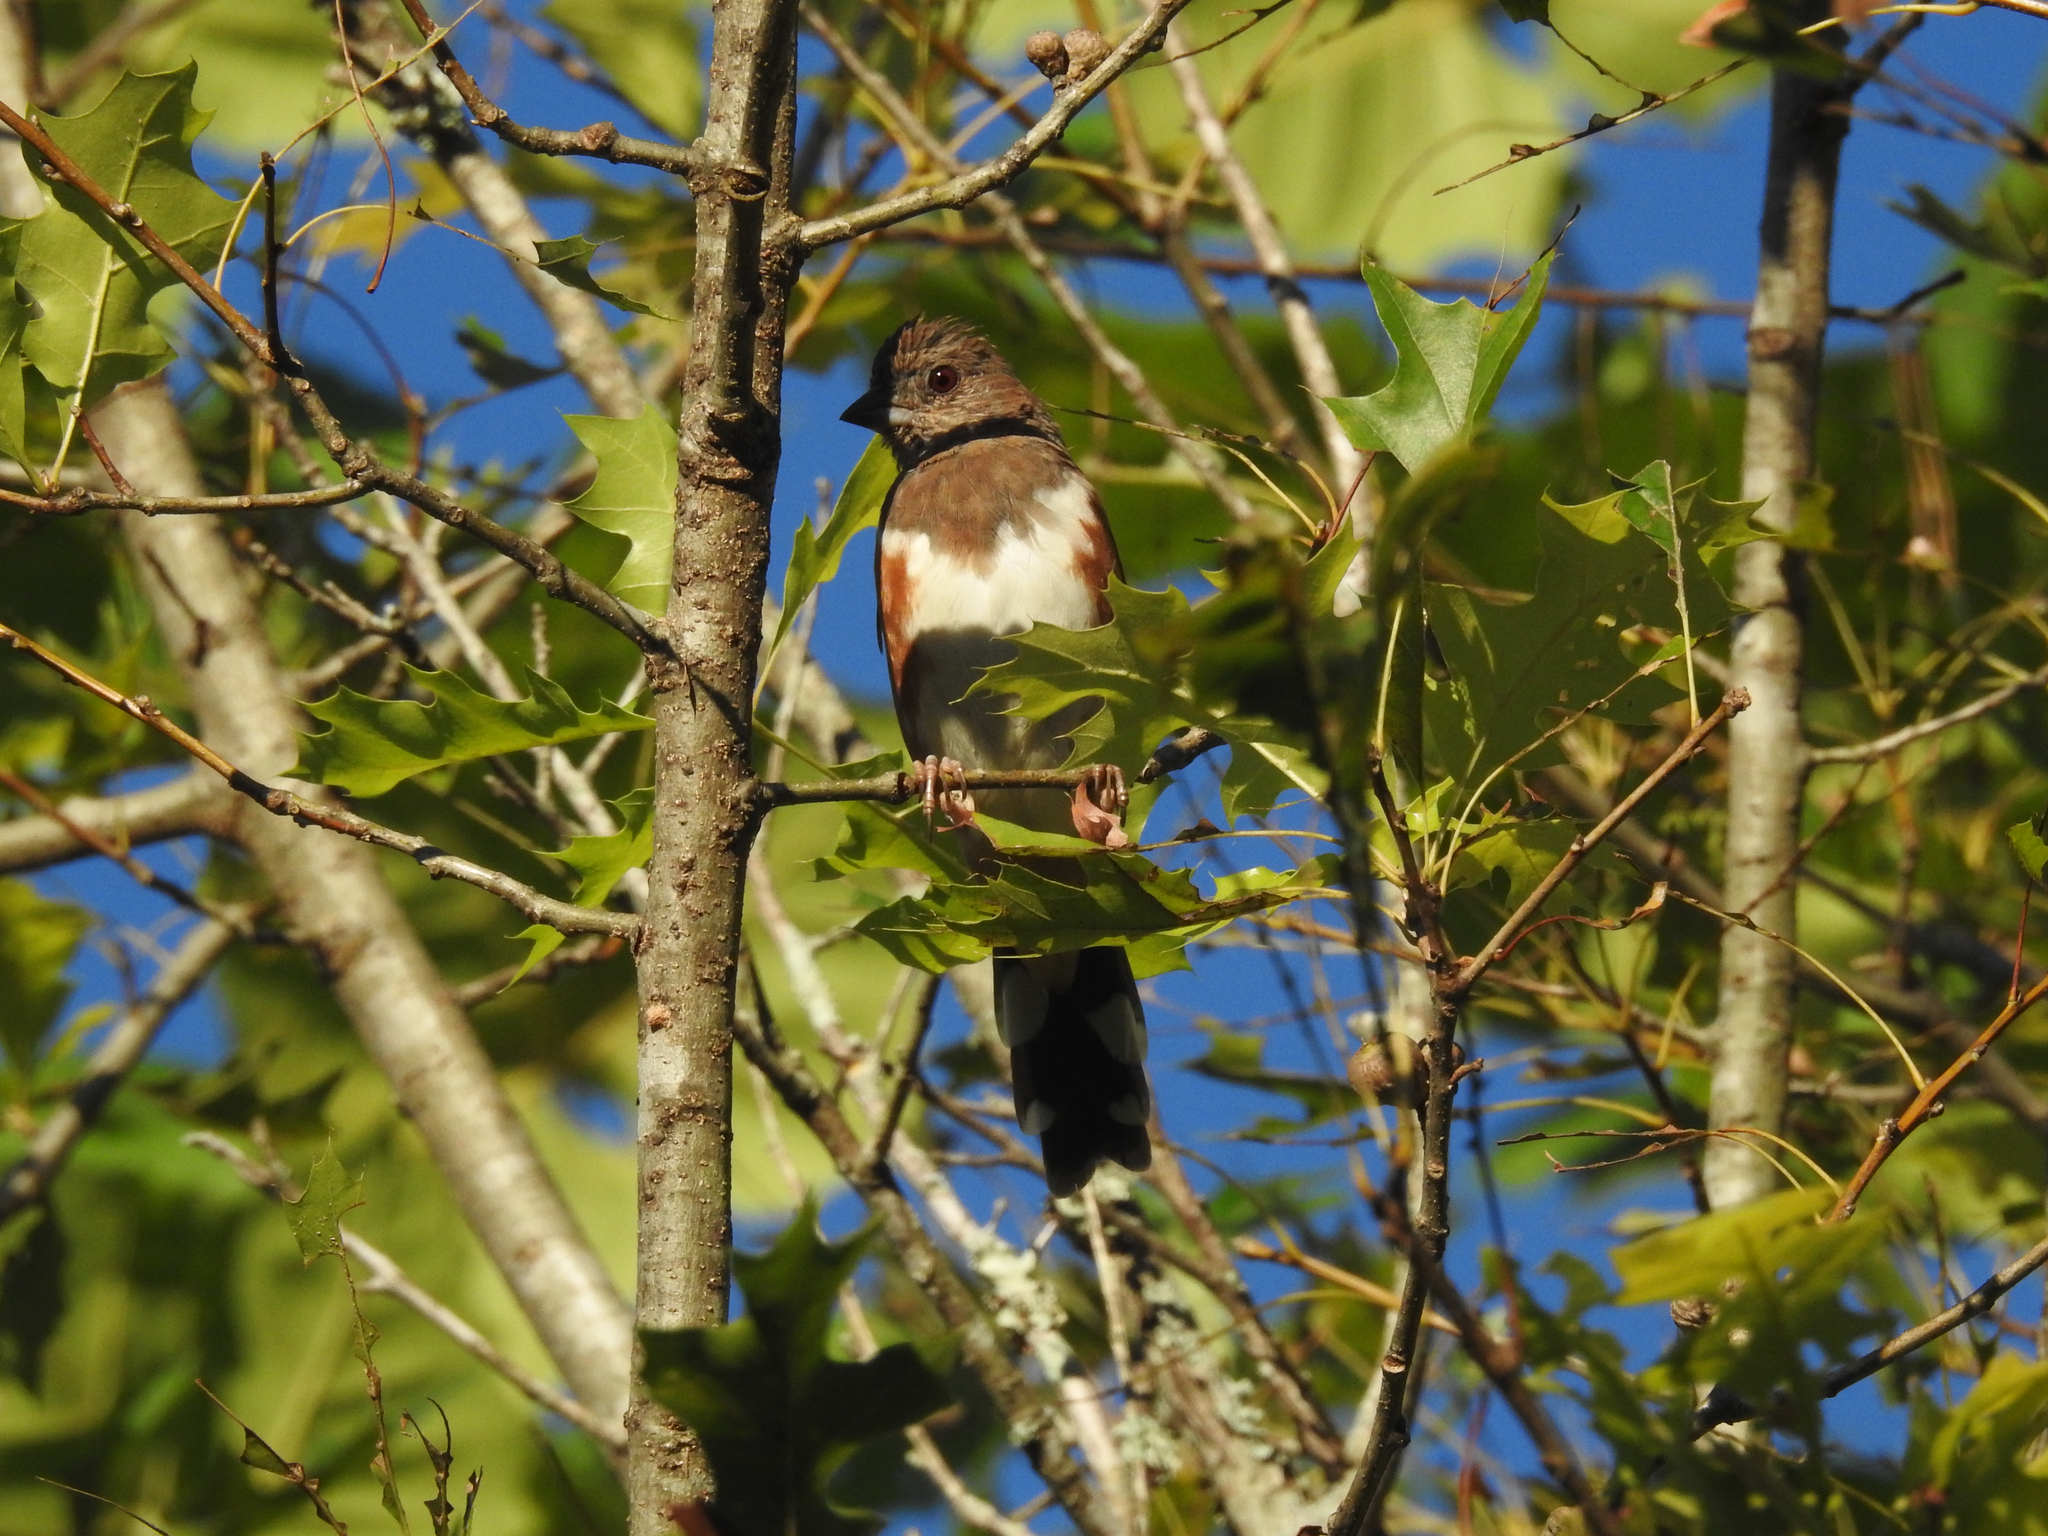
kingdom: Animalia
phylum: Chordata
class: Aves
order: Passeriformes
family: Passerellidae
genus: Pipilo
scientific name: Pipilo erythrophthalmus
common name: Eastern towhee
